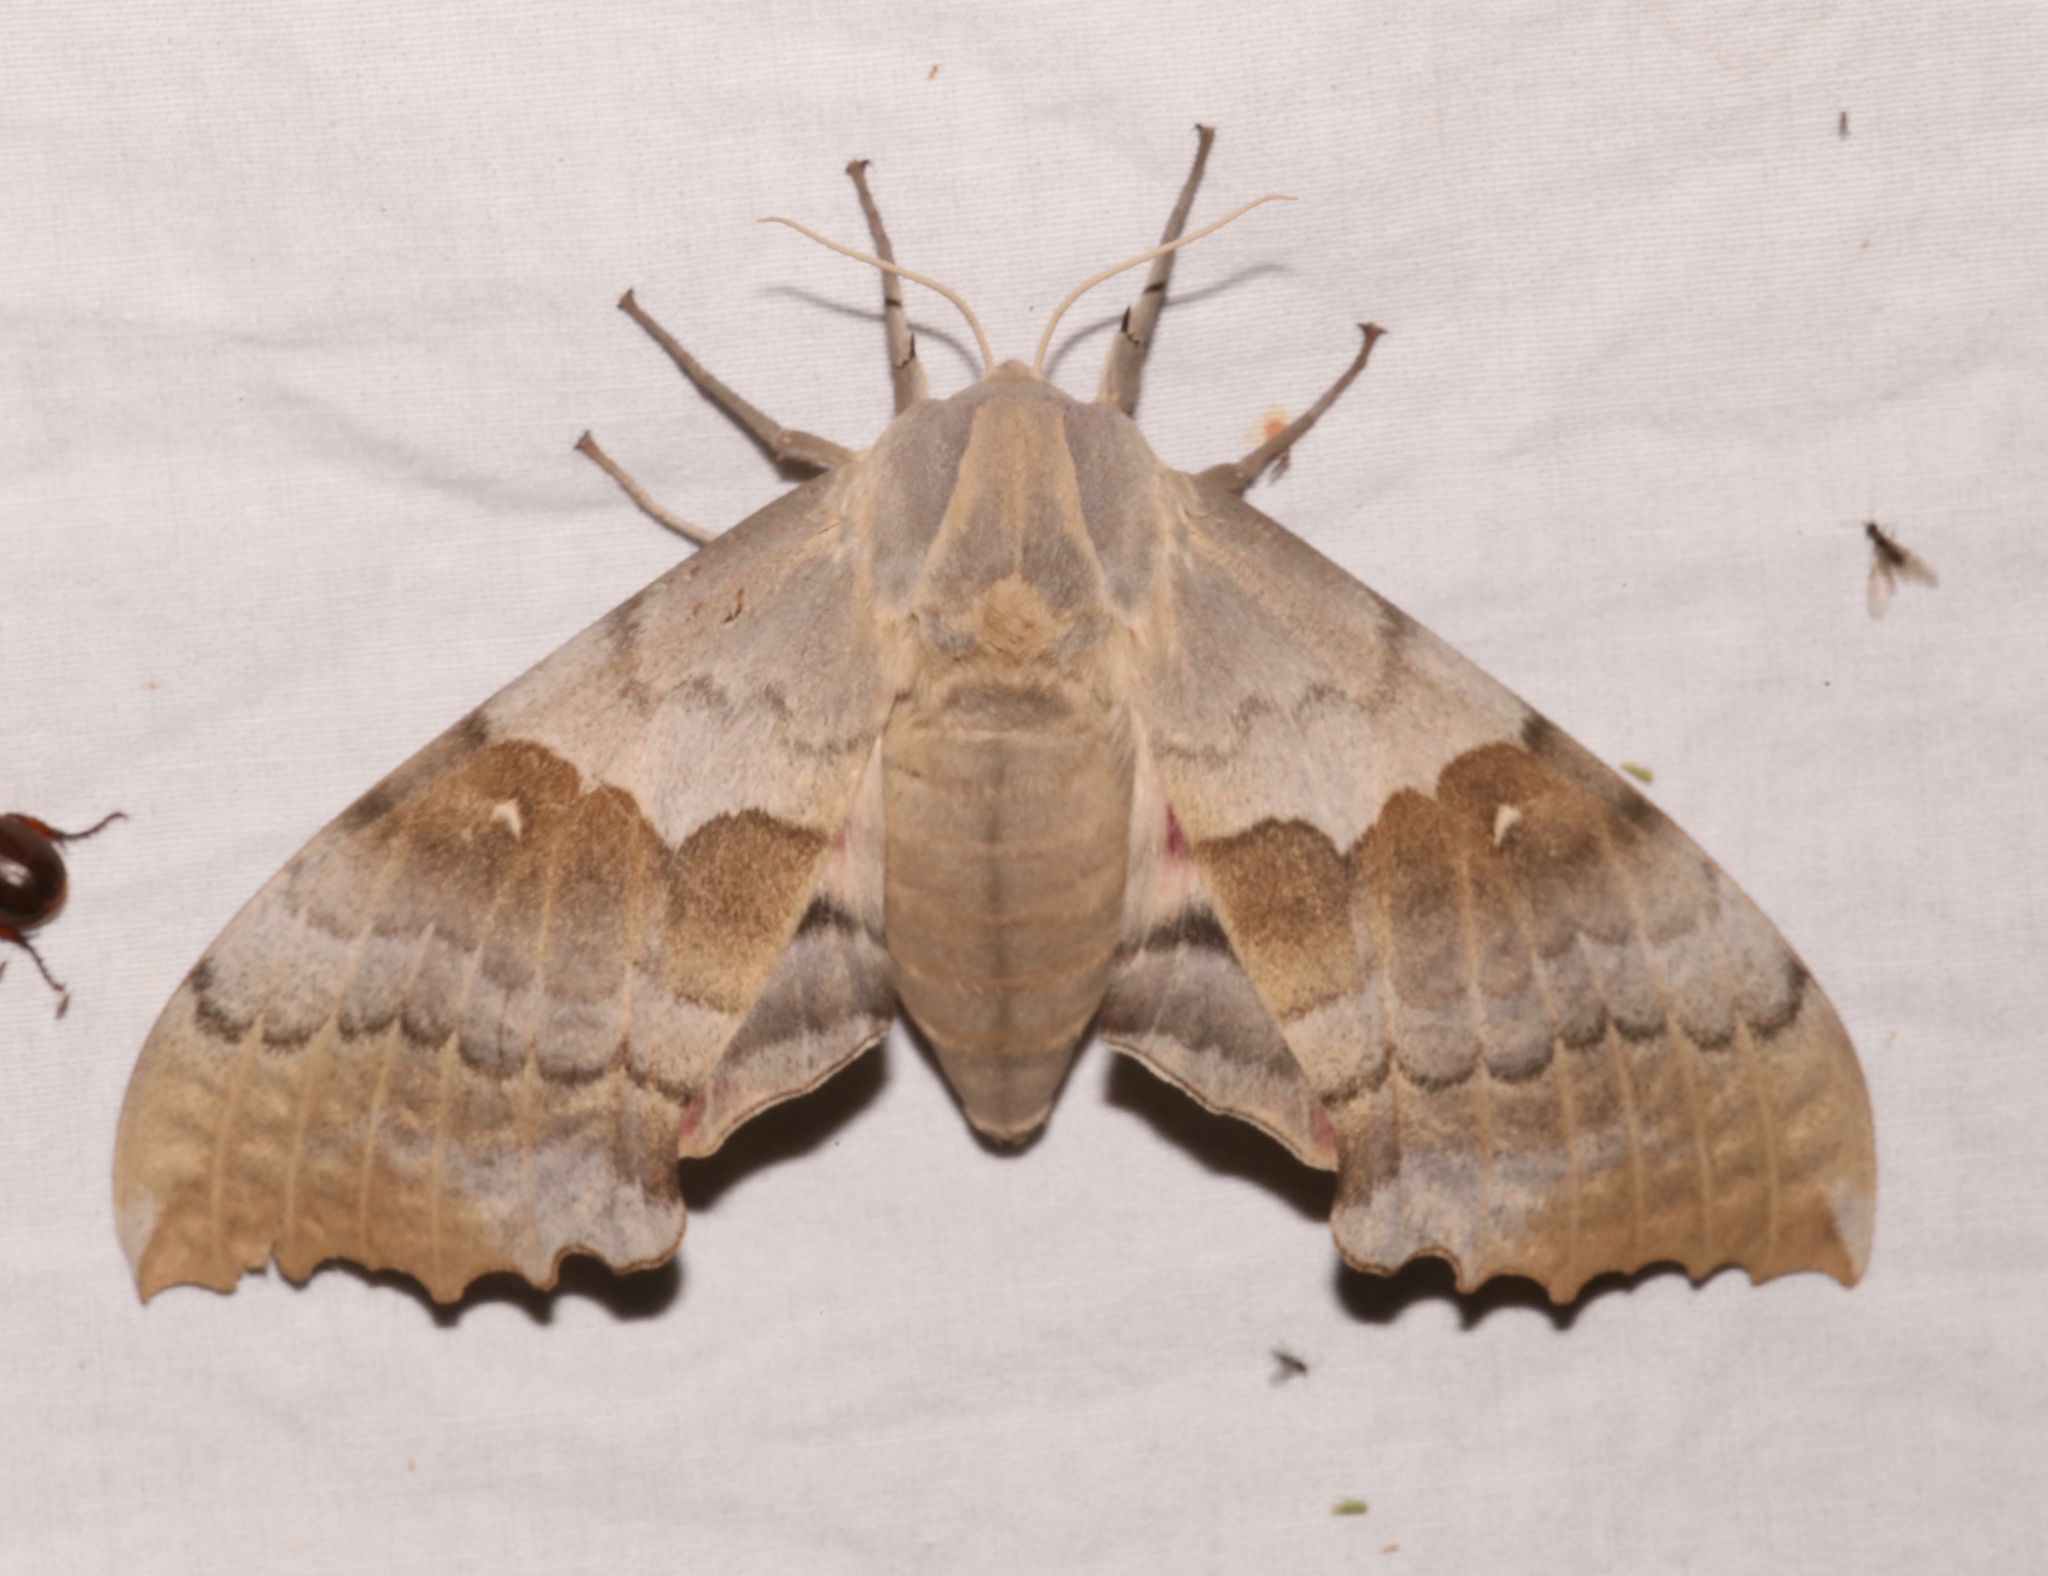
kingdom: Animalia
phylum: Arthropoda
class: Insecta
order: Lepidoptera
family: Sphingidae
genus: Pachysphinx
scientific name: Pachysphinx occidentalis
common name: Western poplar sphinx
